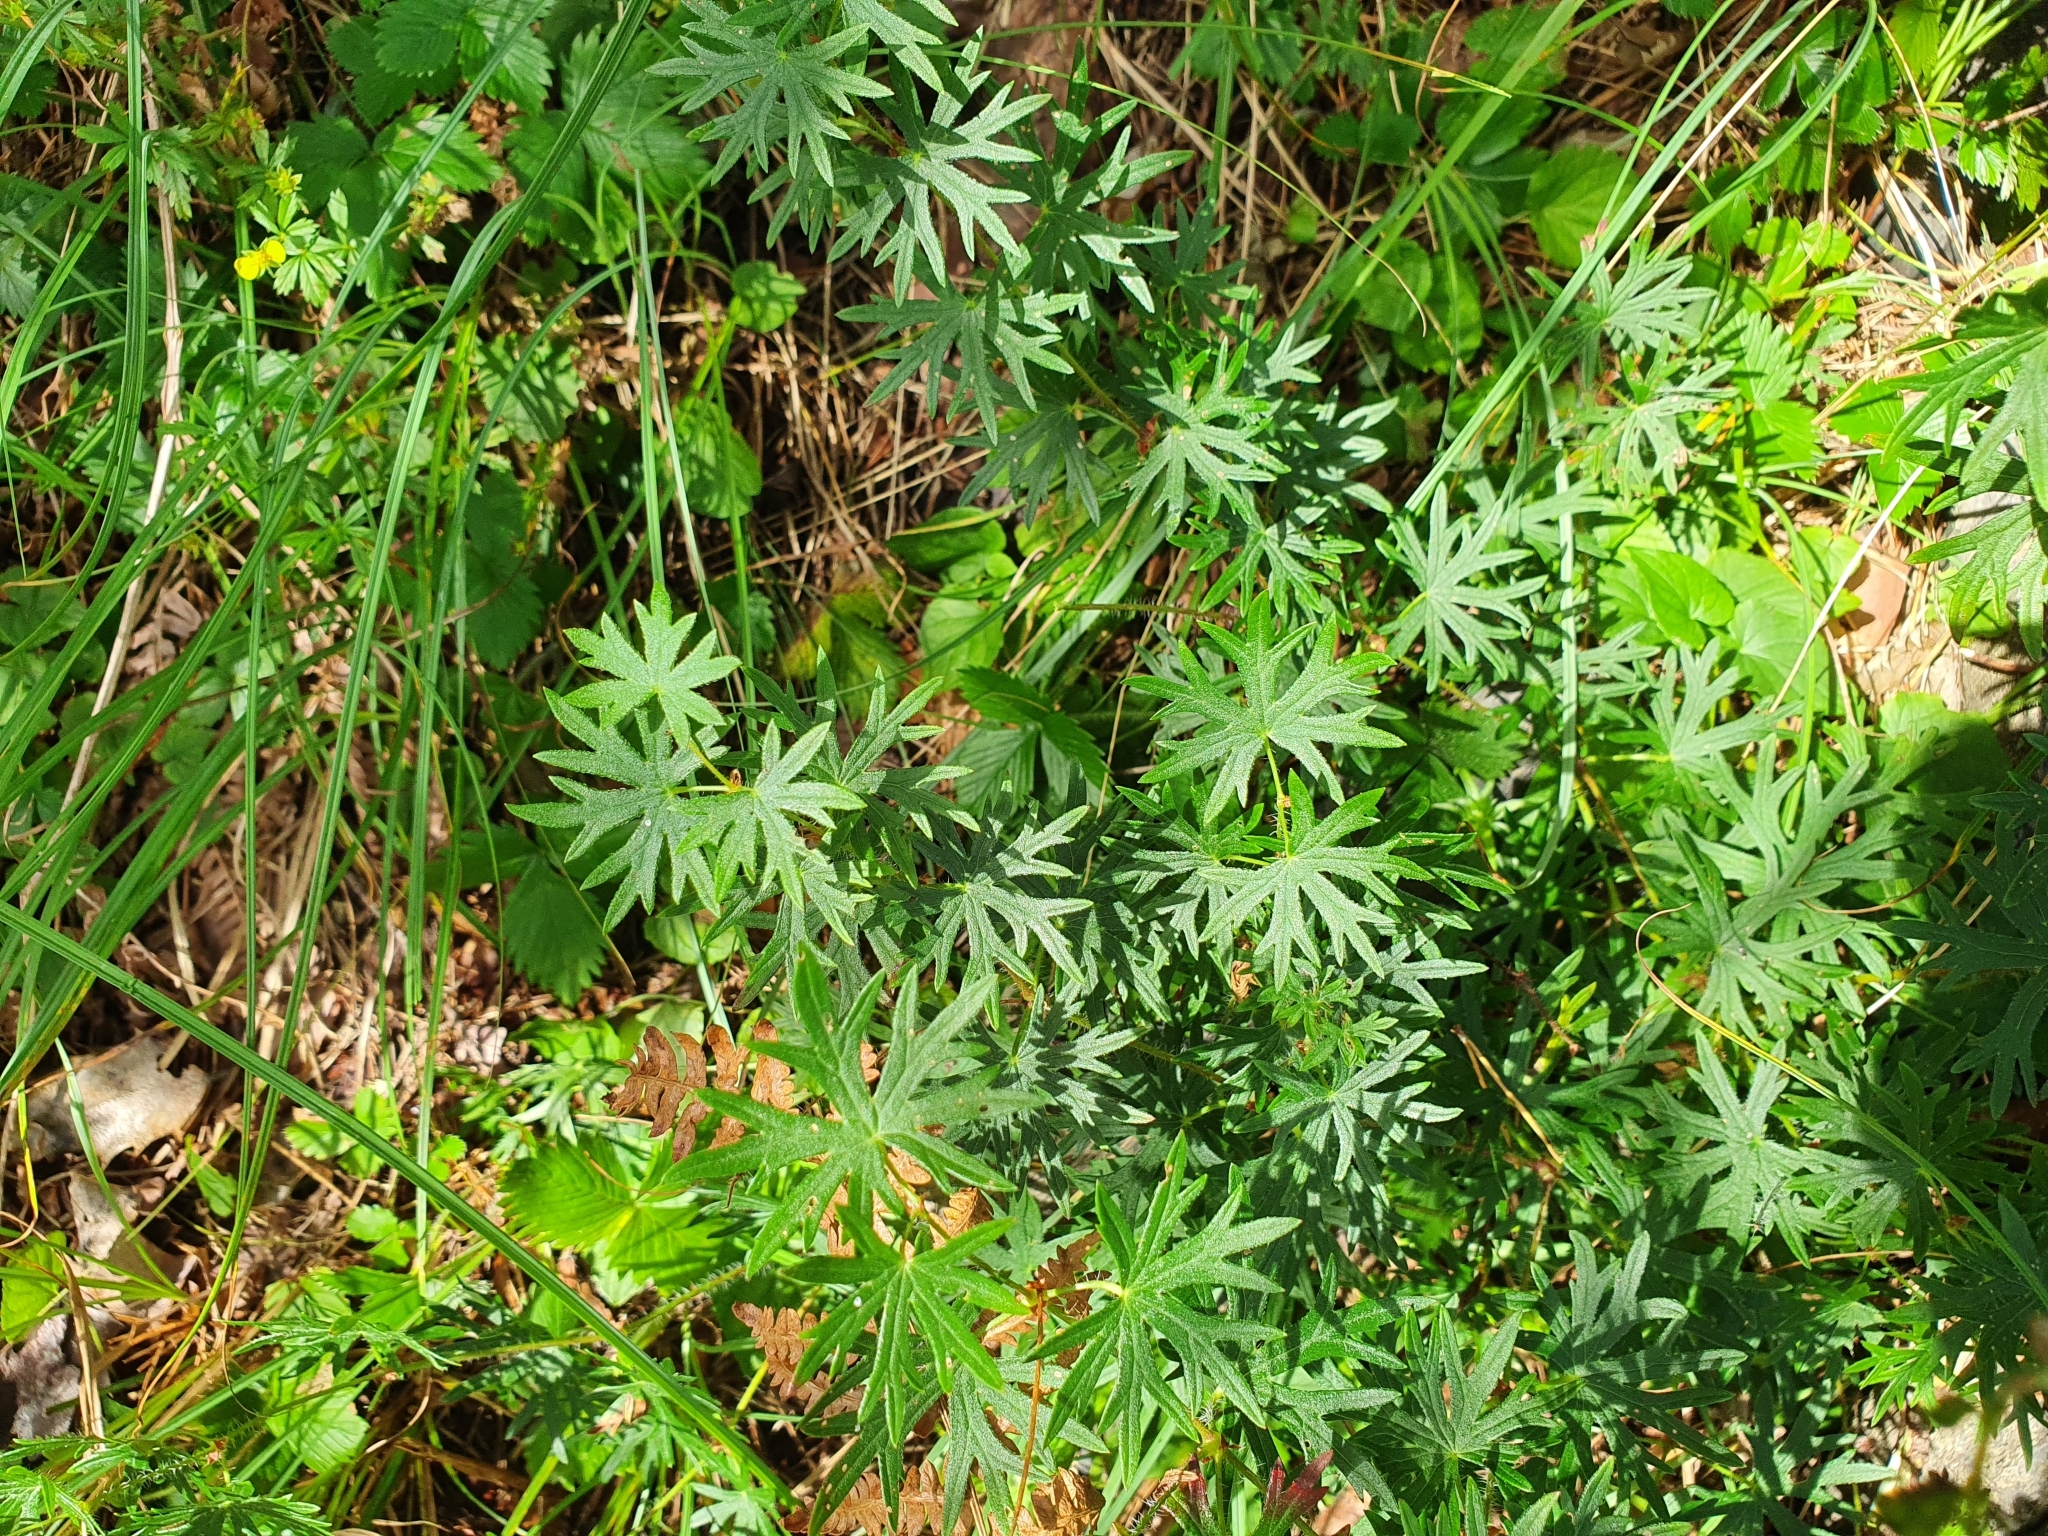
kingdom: Plantae
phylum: Tracheophyta
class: Magnoliopsida
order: Geraniales
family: Geraniaceae
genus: Geranium
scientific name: Geranium sanguineum
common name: Bloody crane's-bill
